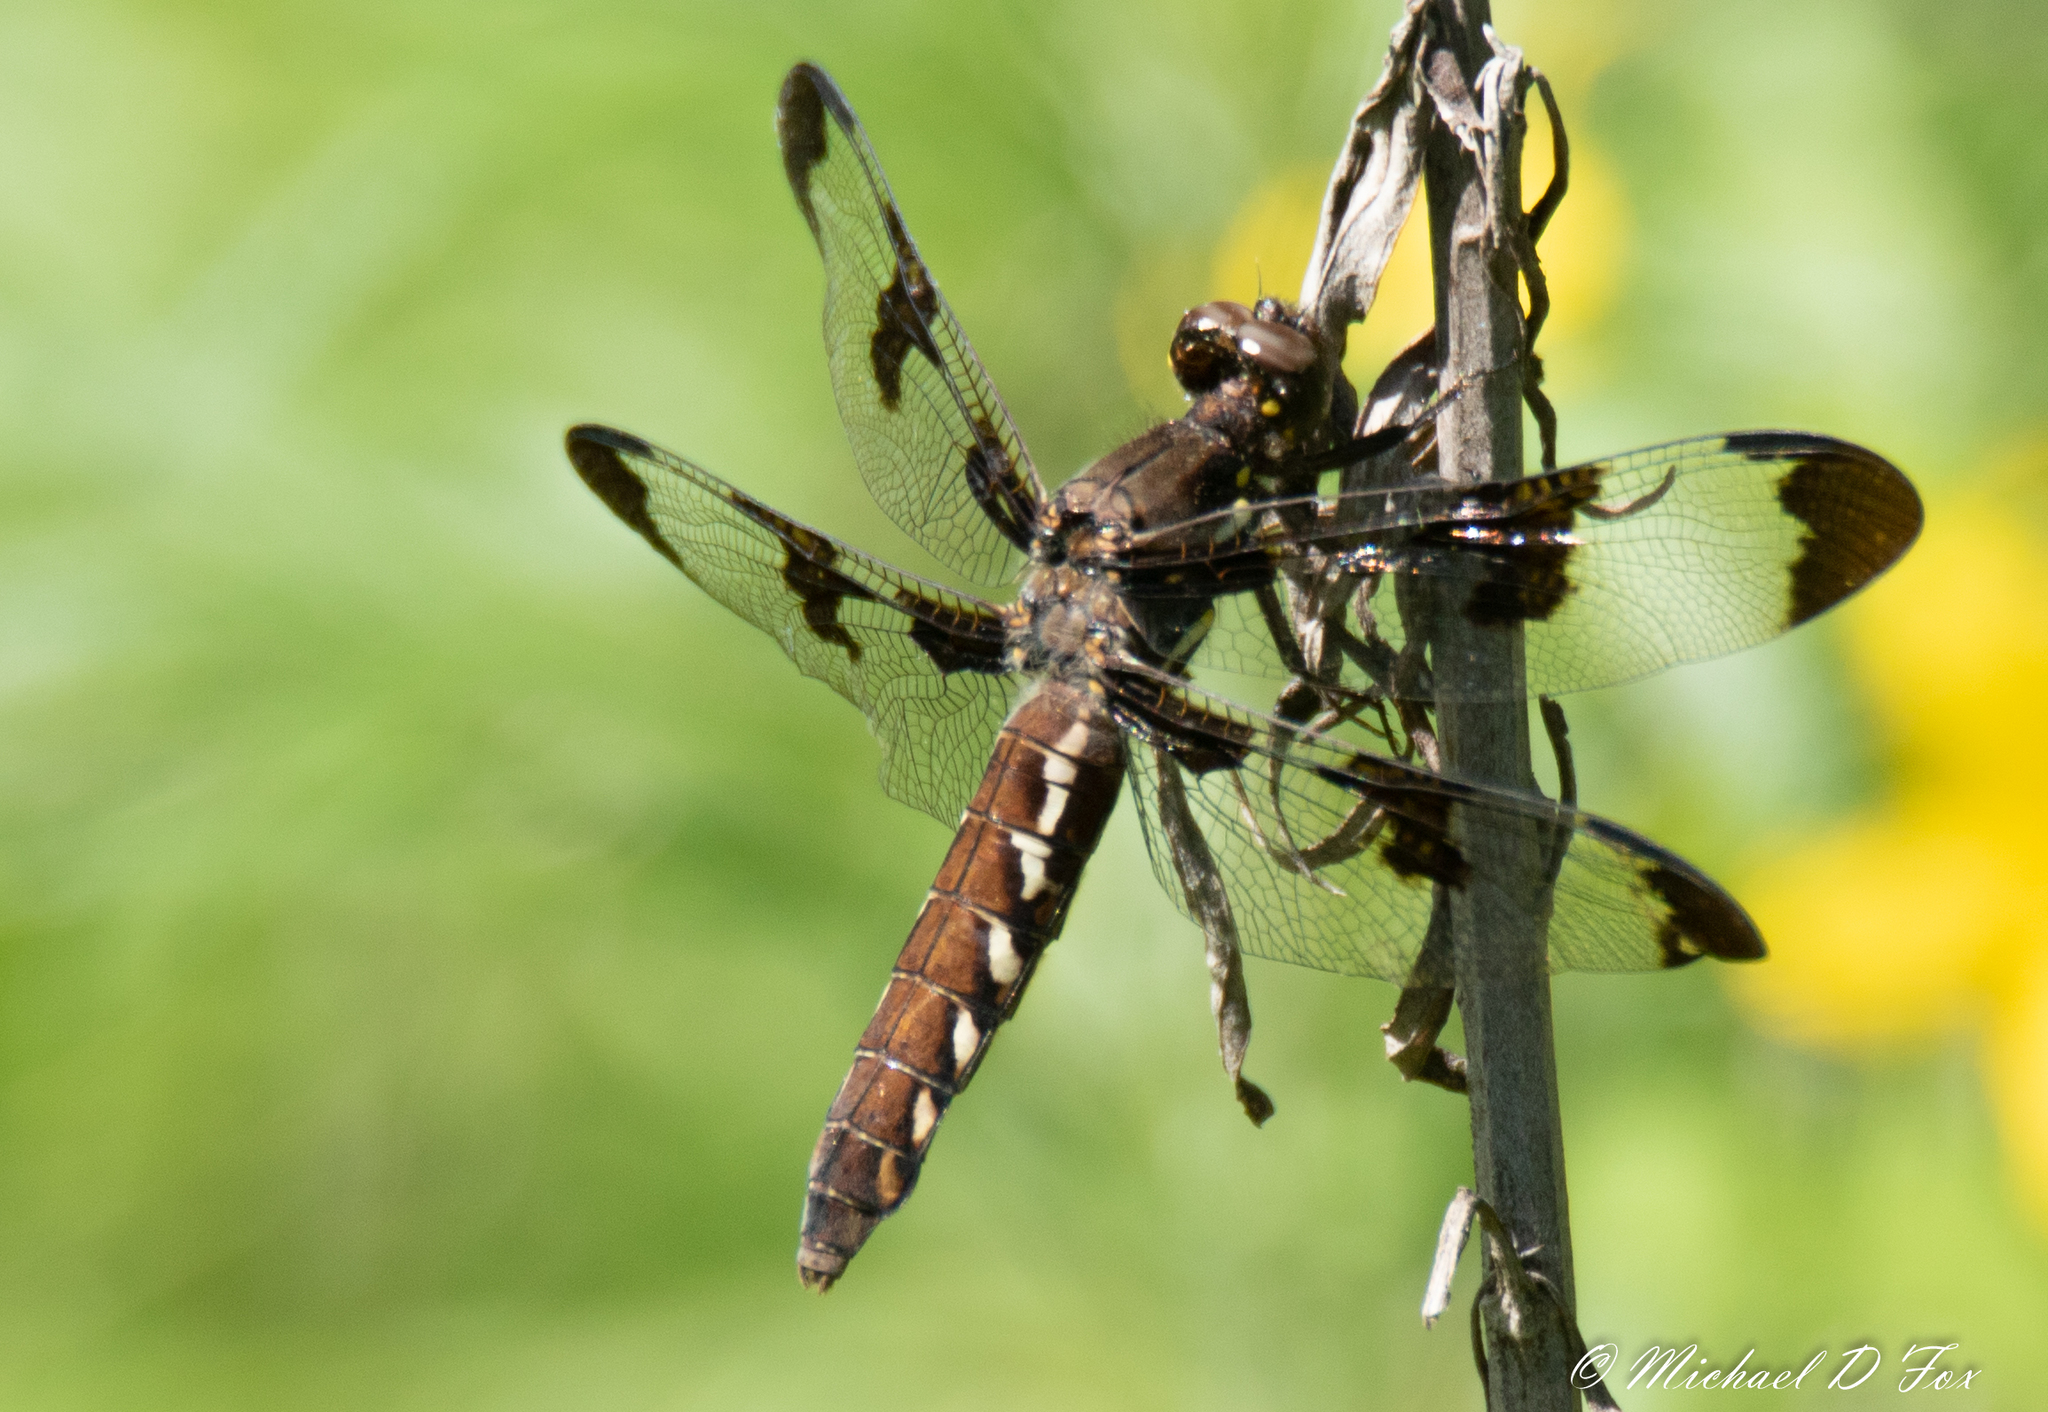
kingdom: Animalia
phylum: Arthropoda
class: Insecta
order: Odonata
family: Libellulidae
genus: Plathemis
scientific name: Plathemis lydia
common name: Common whitetail
